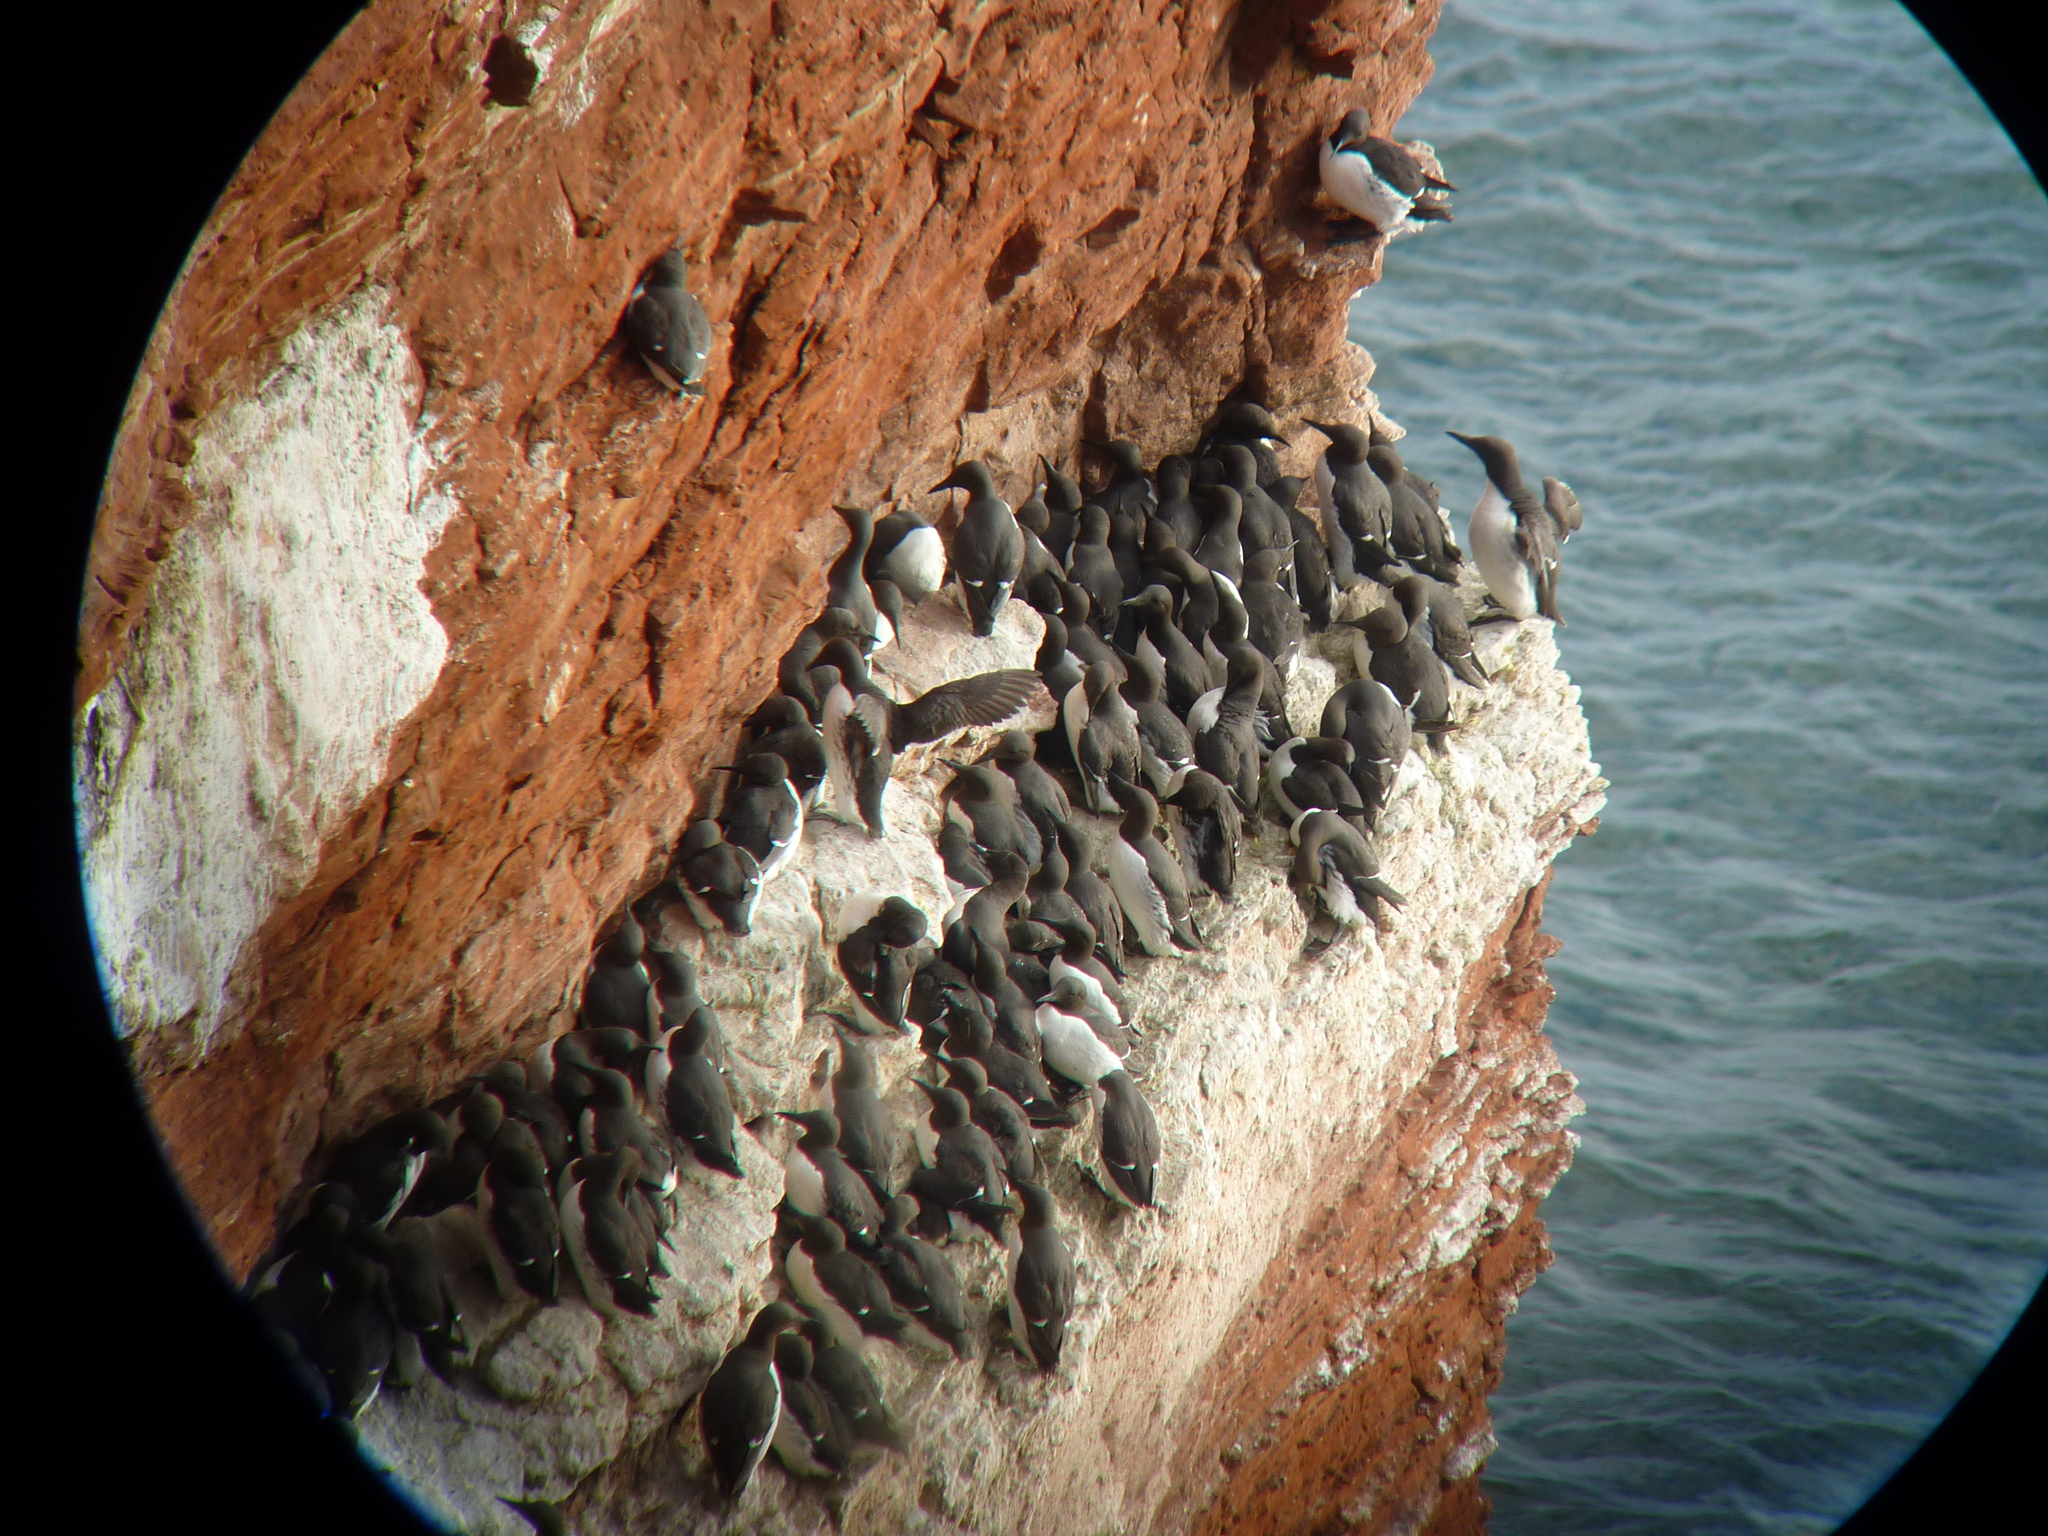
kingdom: Animalia
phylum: Chordata
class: Aves
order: Charadriiformes
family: Alcidae
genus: Uria
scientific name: Uria aalge
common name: Common murre
